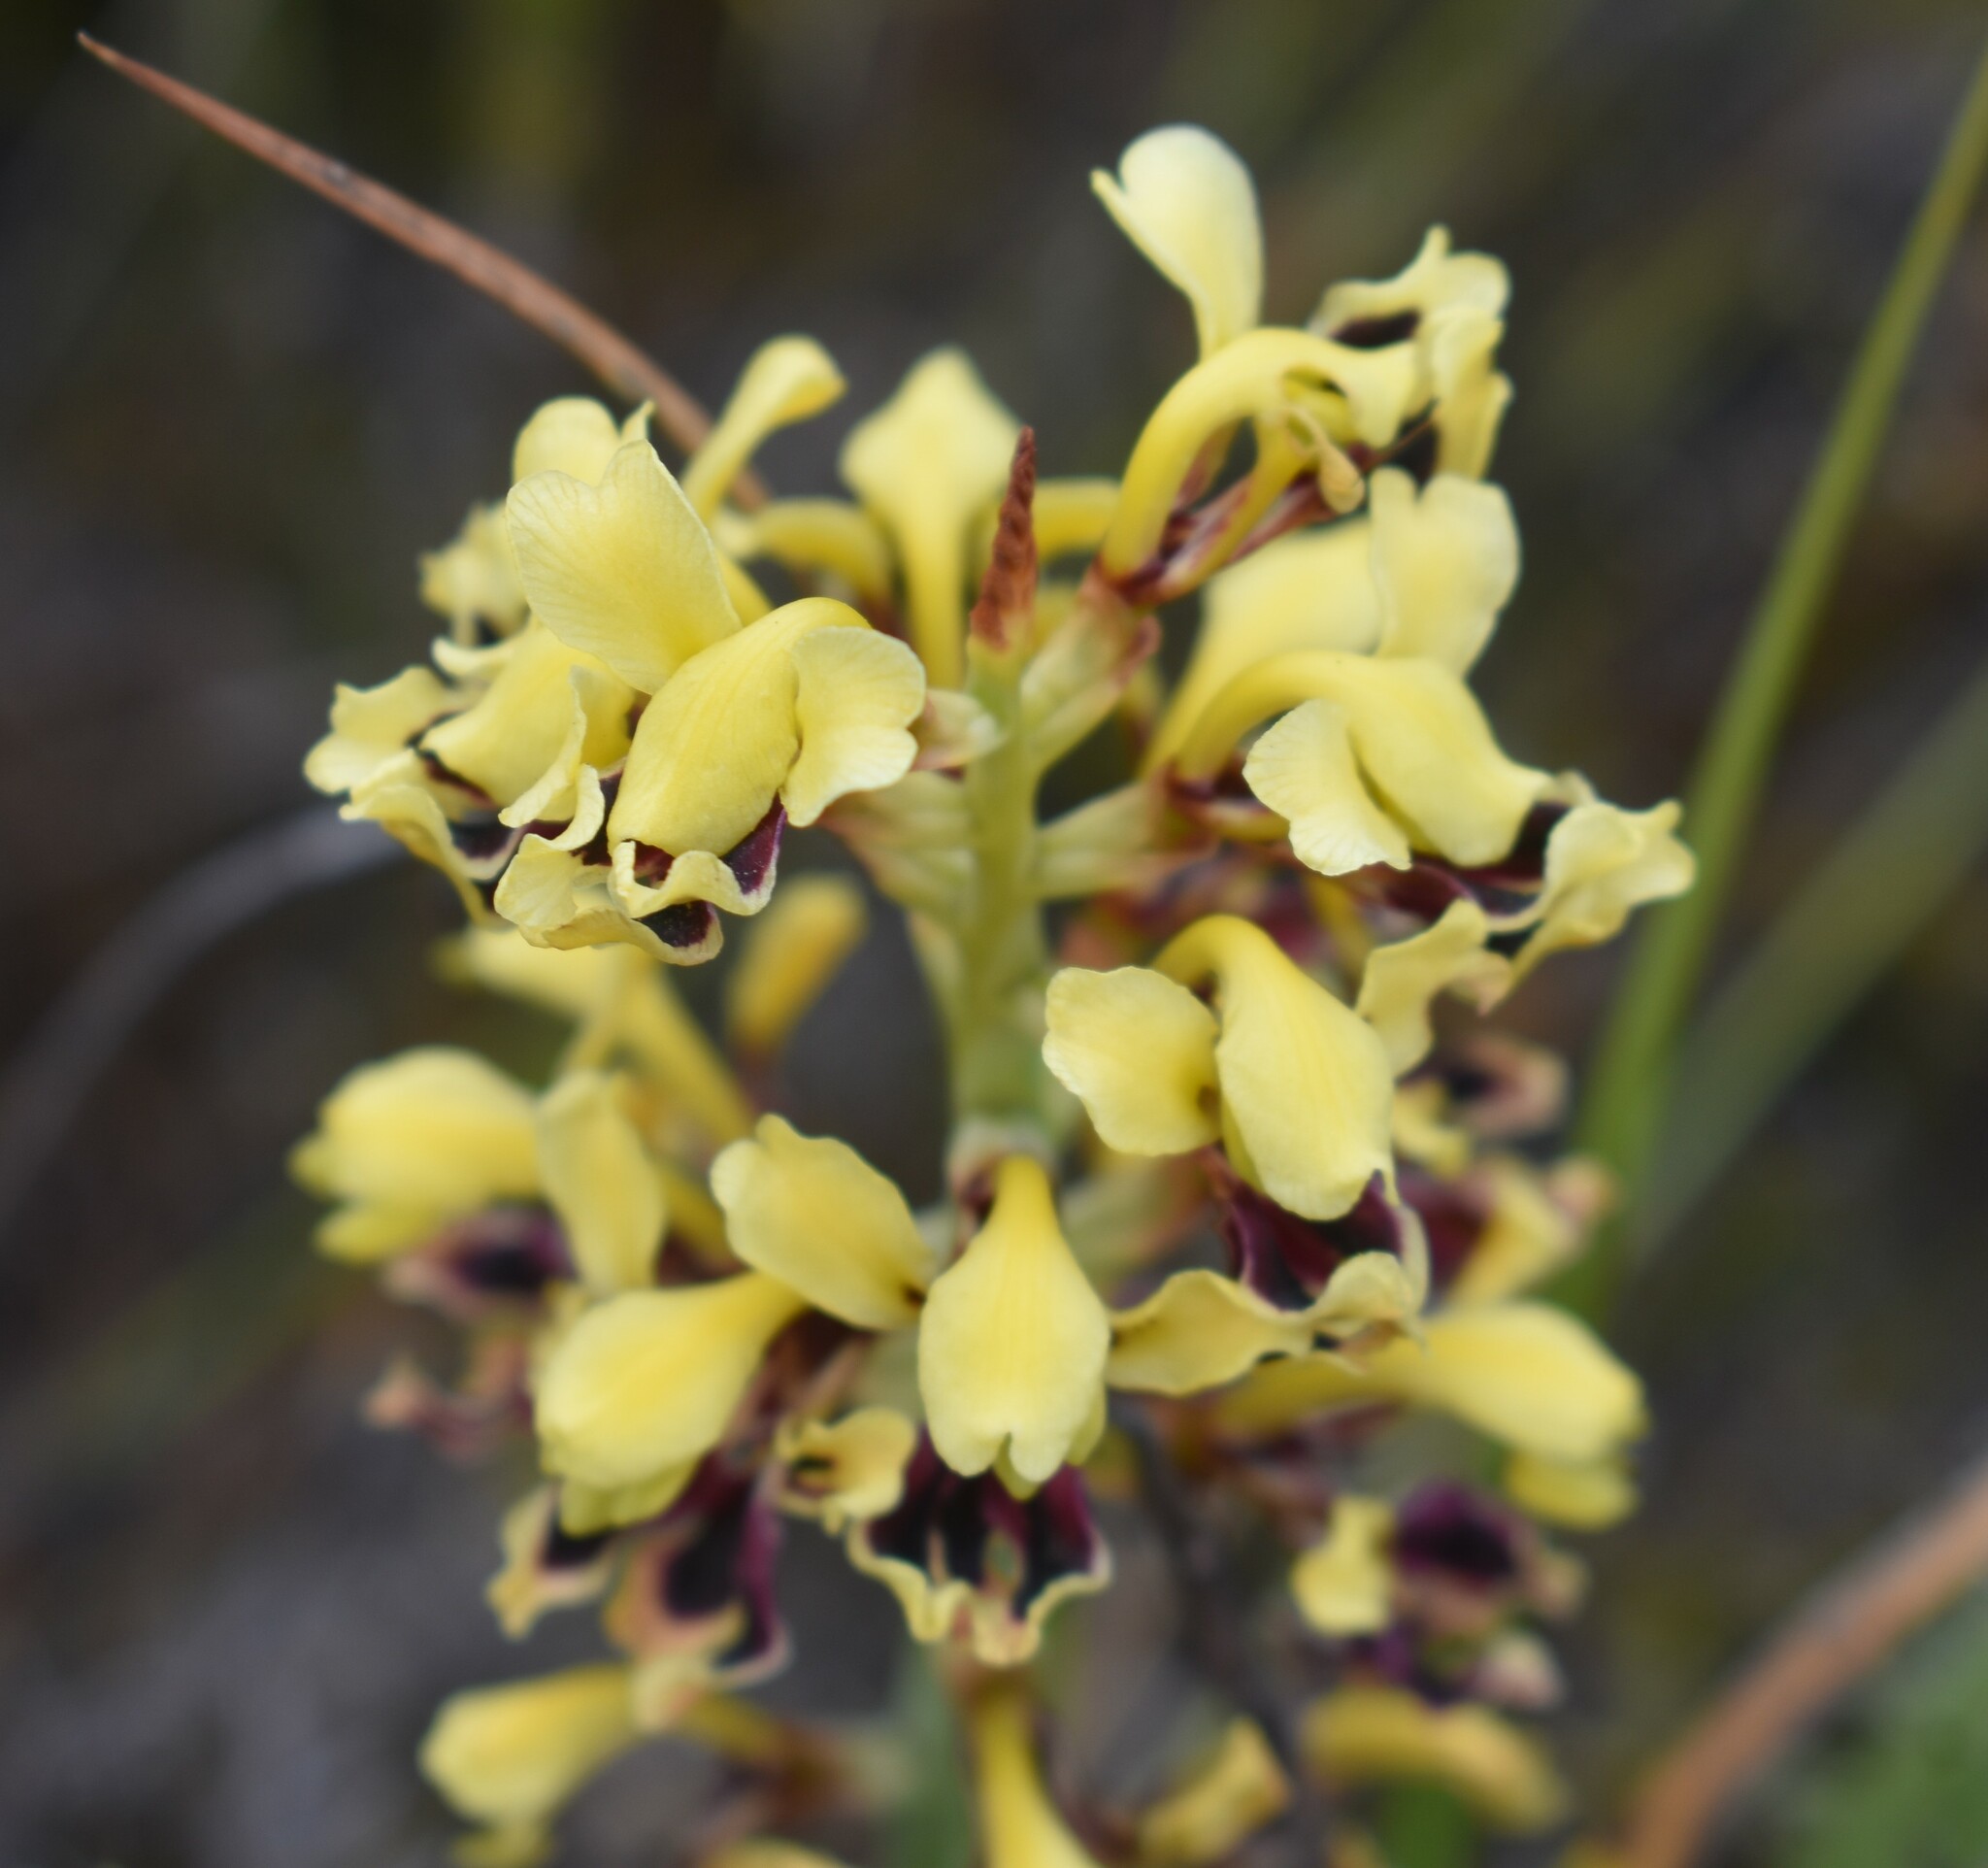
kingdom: Plantae
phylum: Tracheophyta
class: Liliopsida
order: Asparagales
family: Iridaceae
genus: Tritoniopsis
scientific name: Tritoniopsis parviflora
